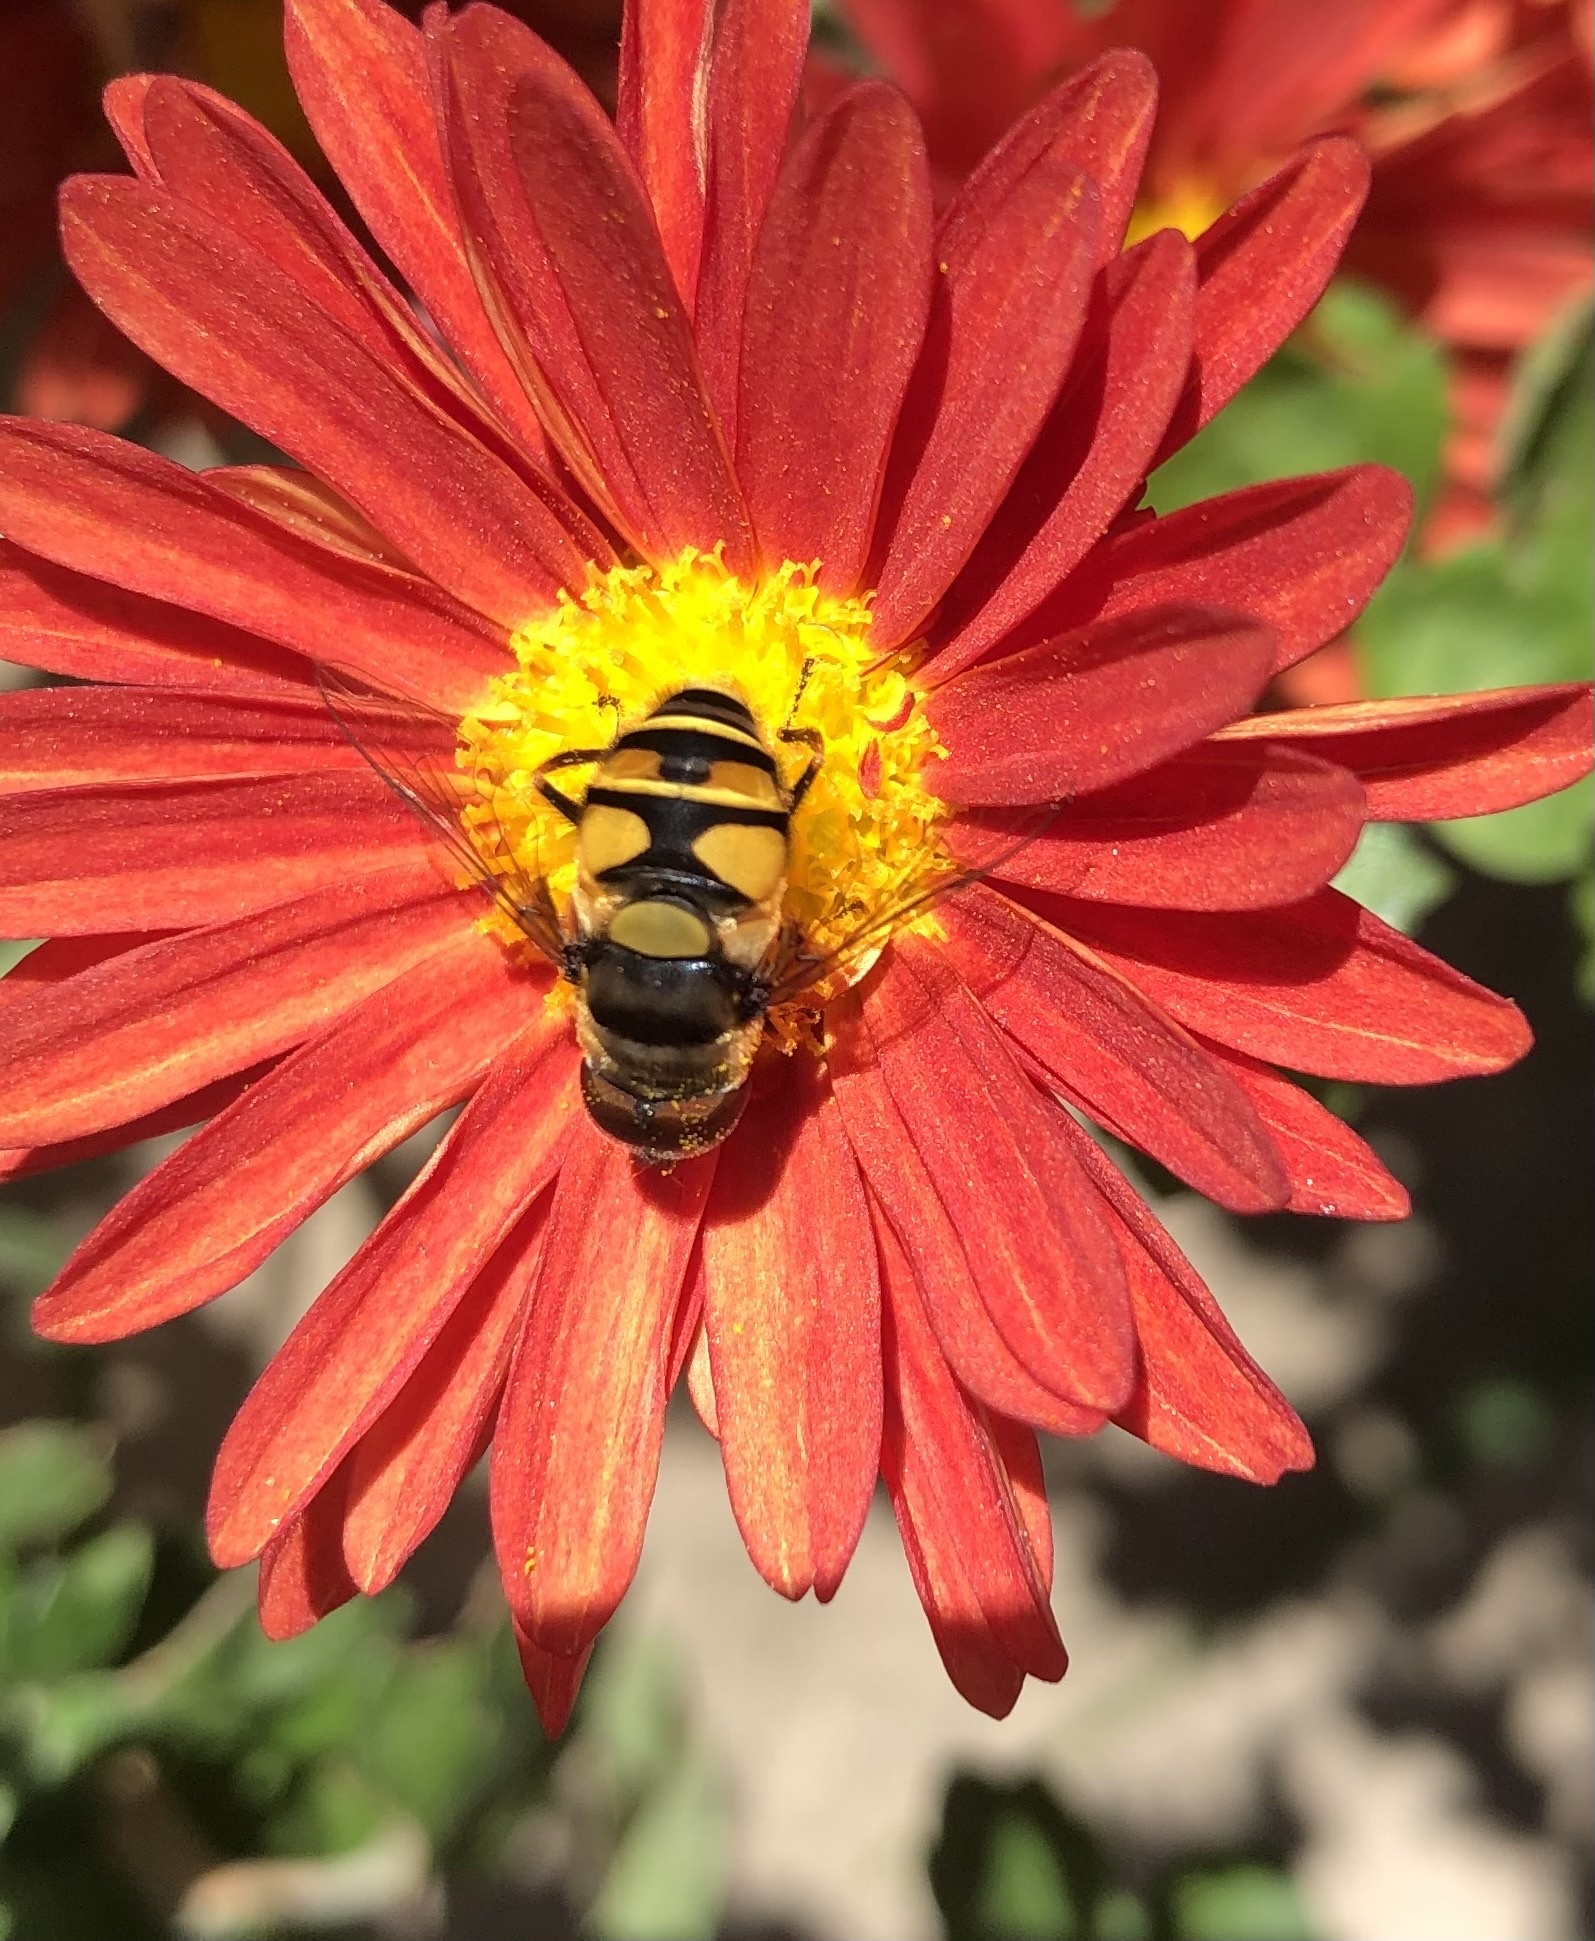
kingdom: Animalia
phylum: Arthropoda
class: Insecta
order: Diptera
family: Syrphidae
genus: Eristalis
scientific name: Eristalis transversa
